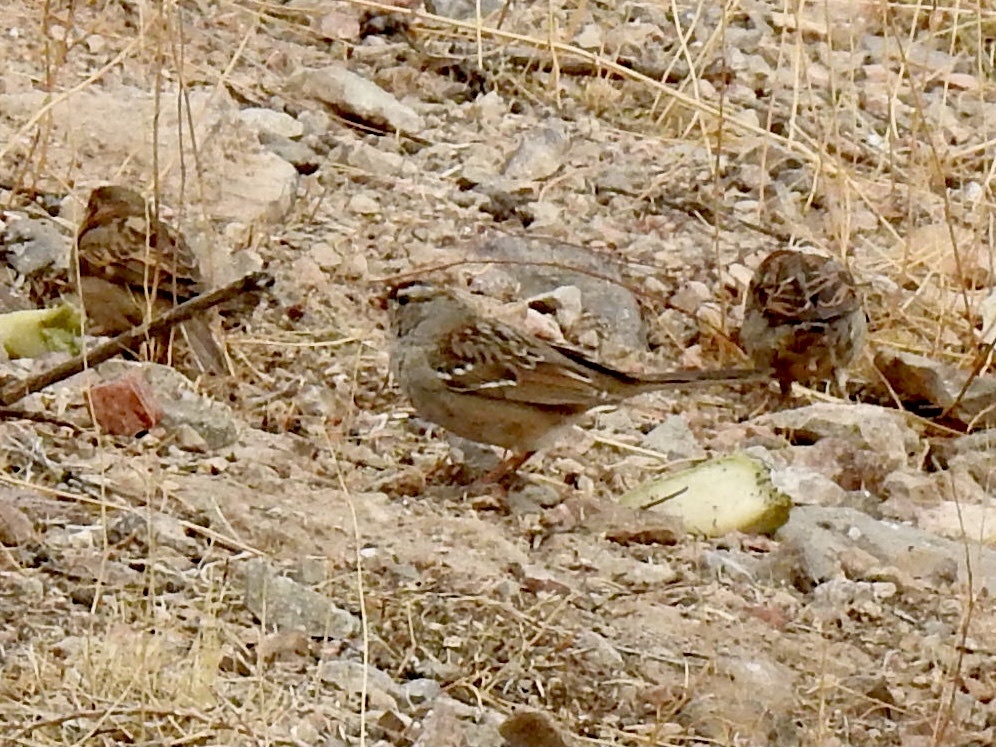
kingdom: Animalia
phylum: Chordata
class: Aves
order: Passeriformes
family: Passerellidae
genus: Zonotrichia
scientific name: Zonotrichia leucophrys
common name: White-crowned sparrow
